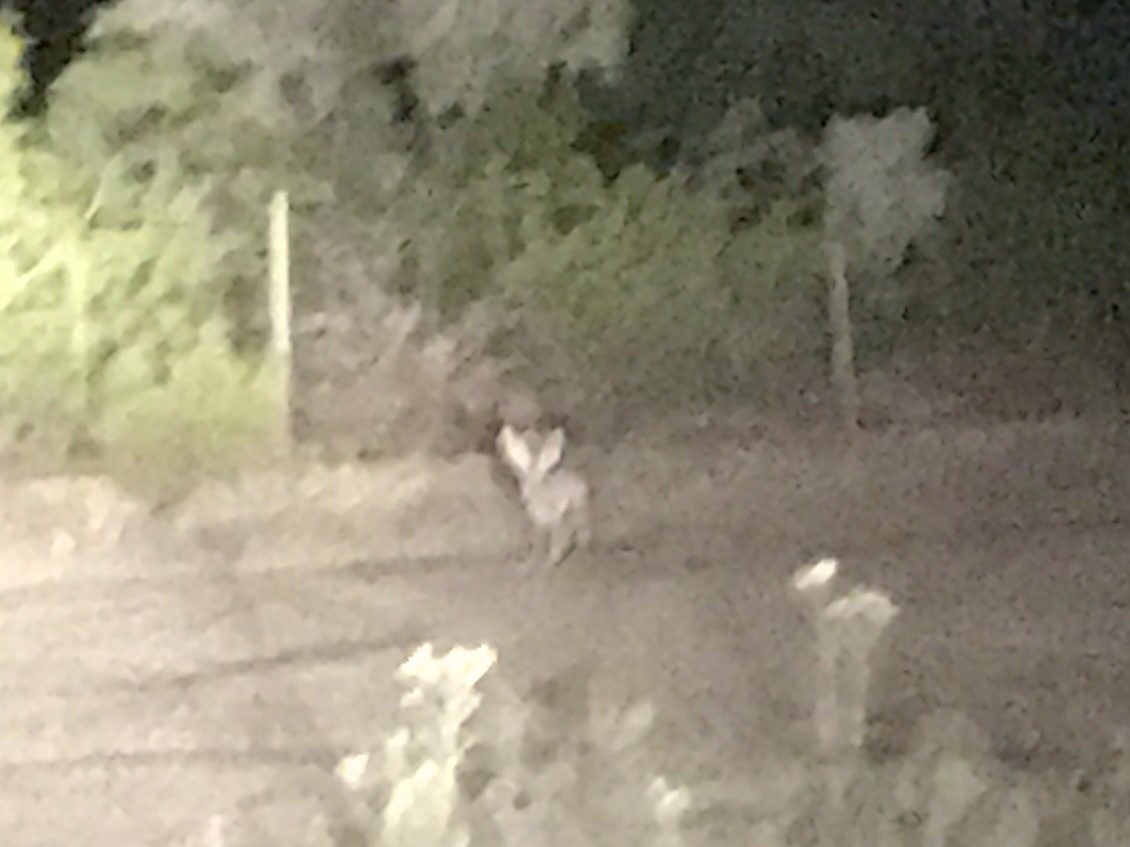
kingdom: Animalia
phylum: Chordata
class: Mammalia
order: Lagomorpha
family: Leporidae
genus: Lepus
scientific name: Lepus californicus
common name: Black-tailed jackrabbit
